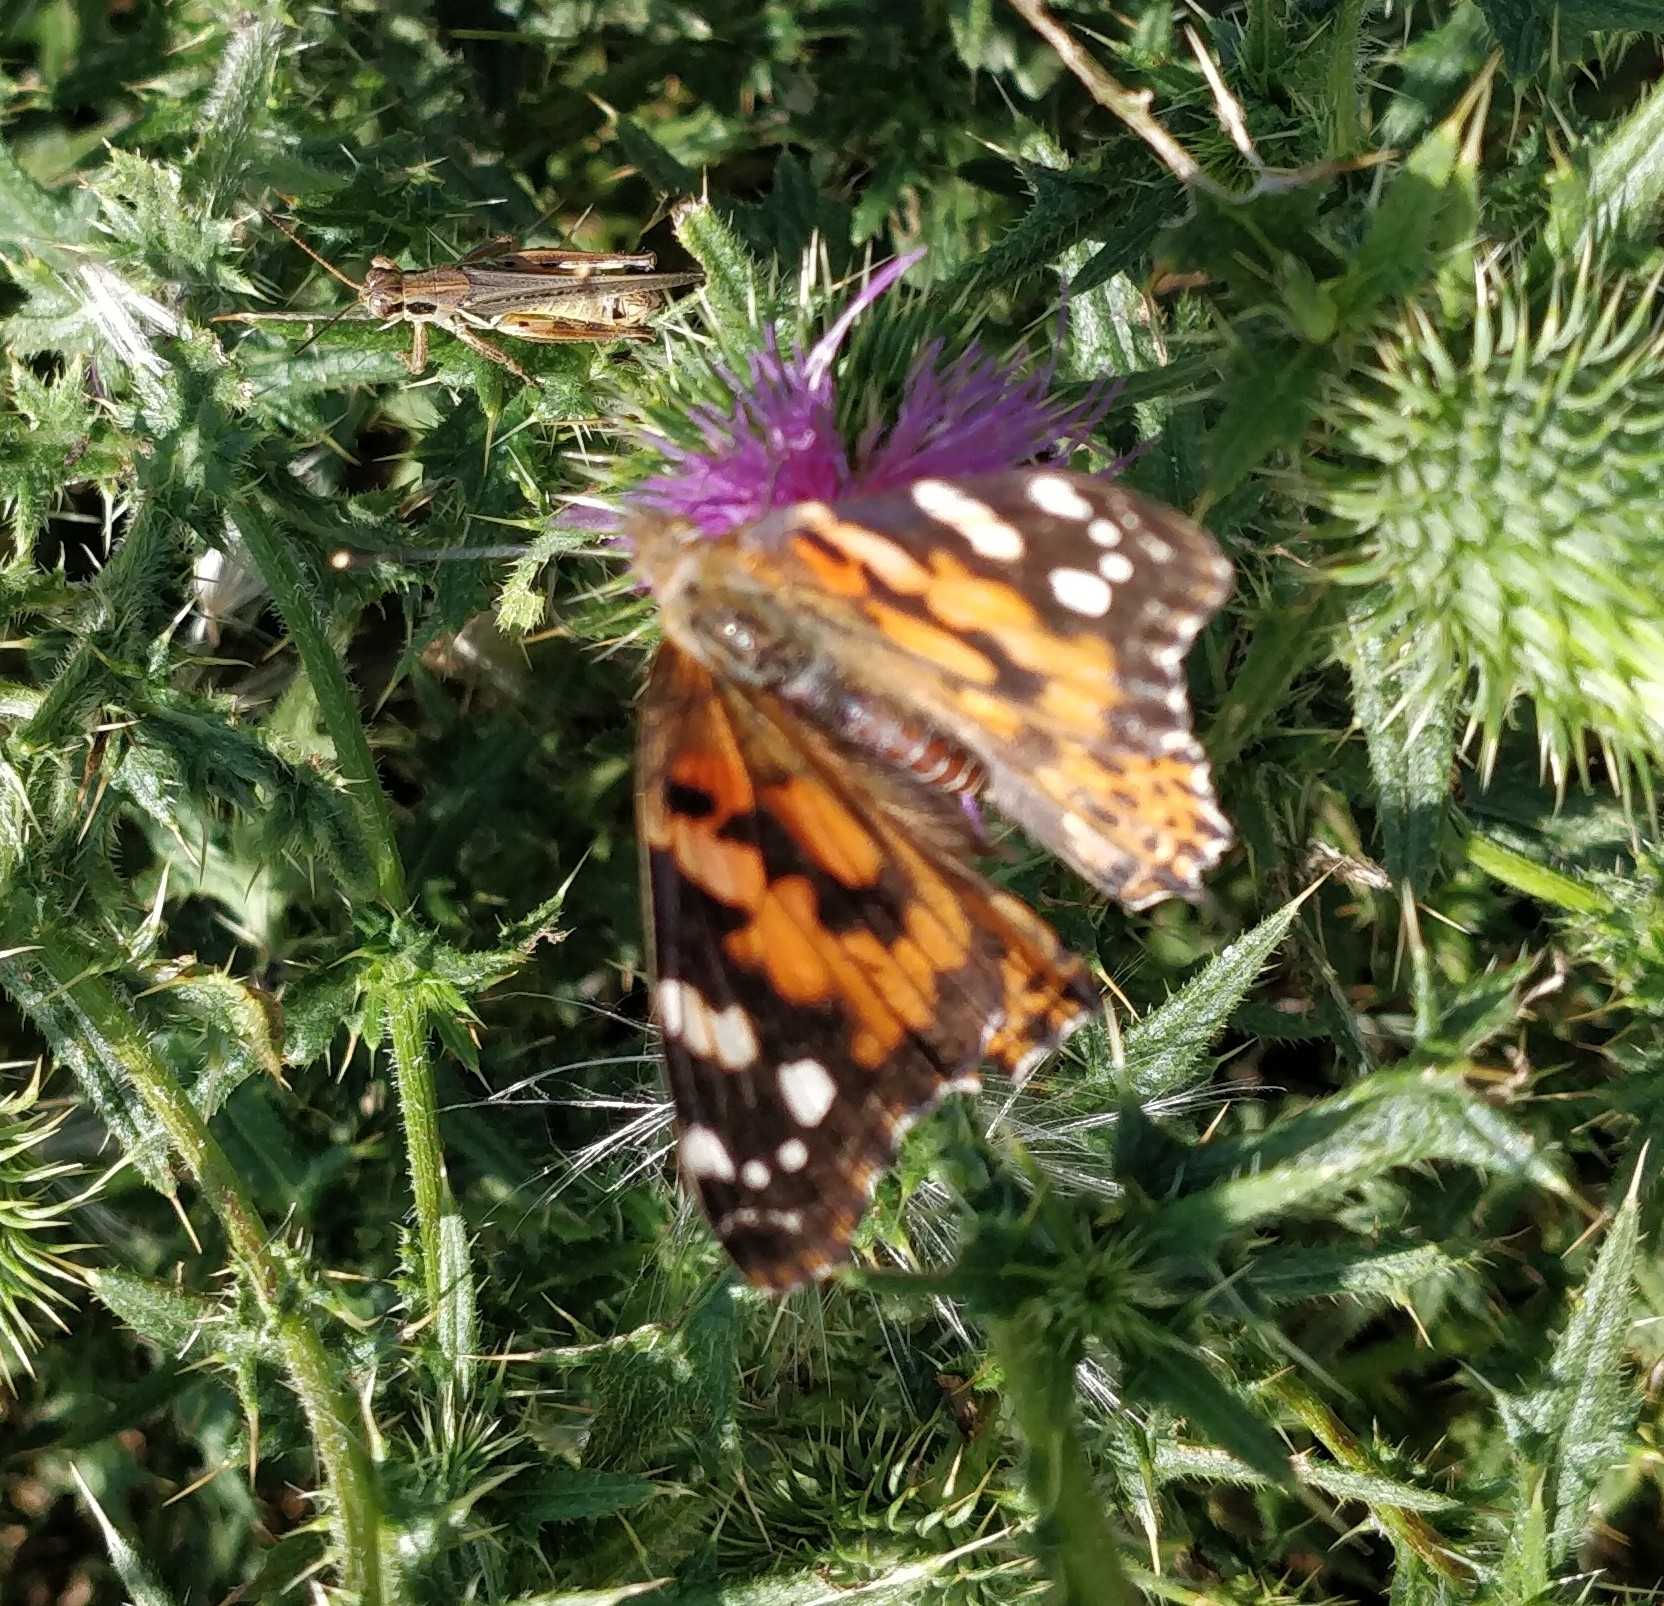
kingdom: Animalia
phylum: Arthropoda
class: Insecta
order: Lepidoptera
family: Nymphalidae
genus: Vanessa
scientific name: Vanessa cardui
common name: Painted lady
